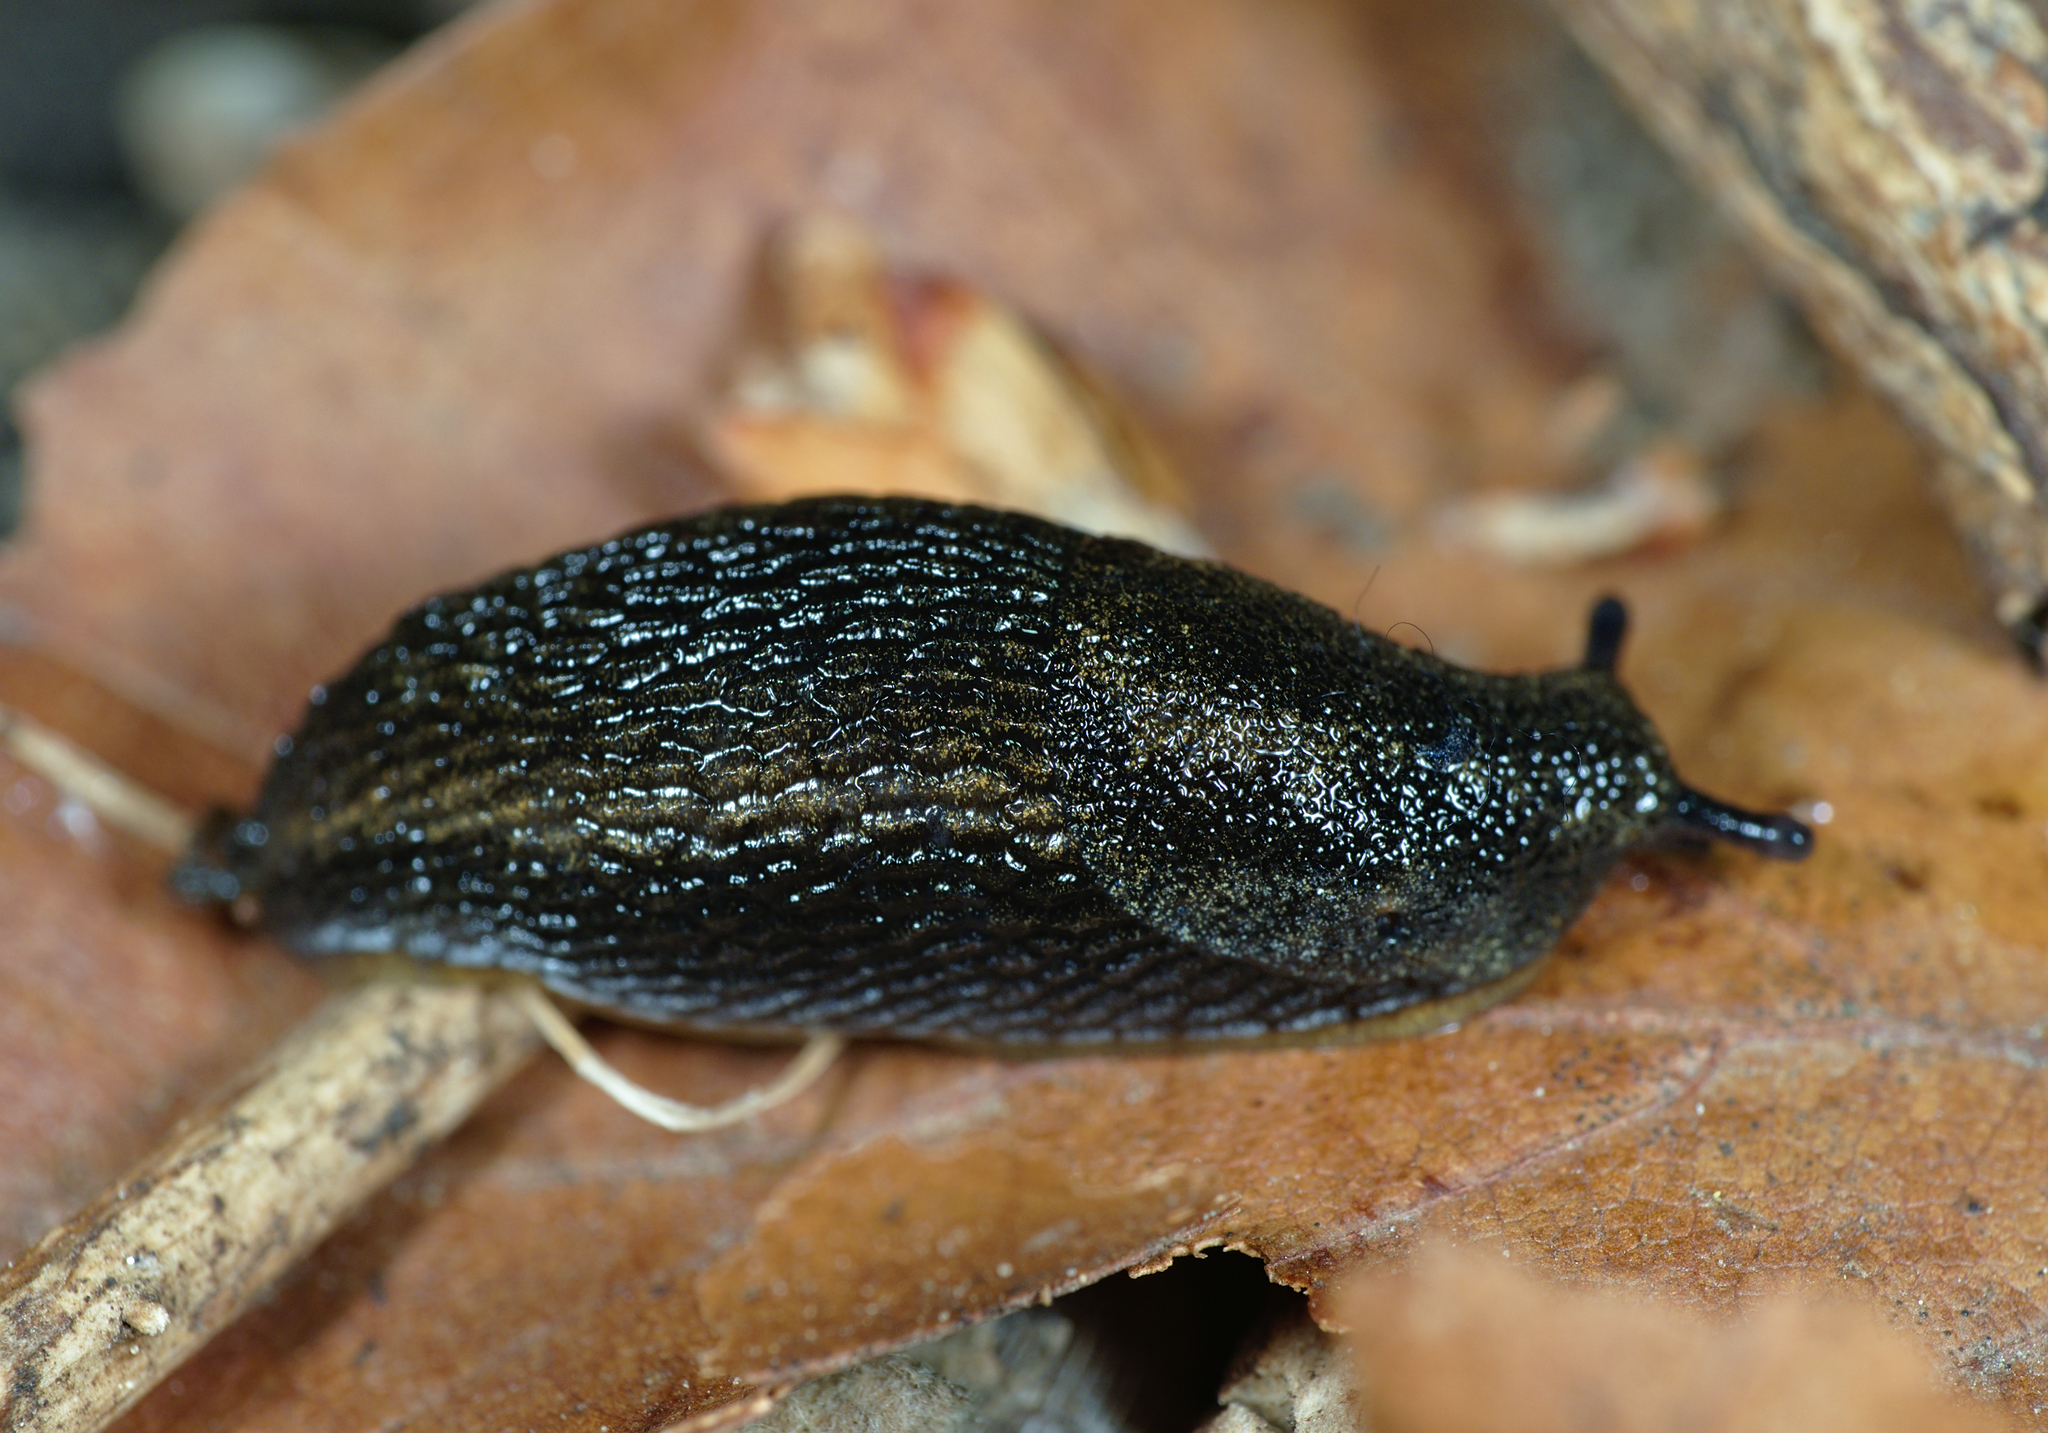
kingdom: Animalia
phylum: Mollusca
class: Gastropoda
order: Stylommatophora
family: Arionidae
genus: Arion
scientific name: Arion hortensis
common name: Garden arion
